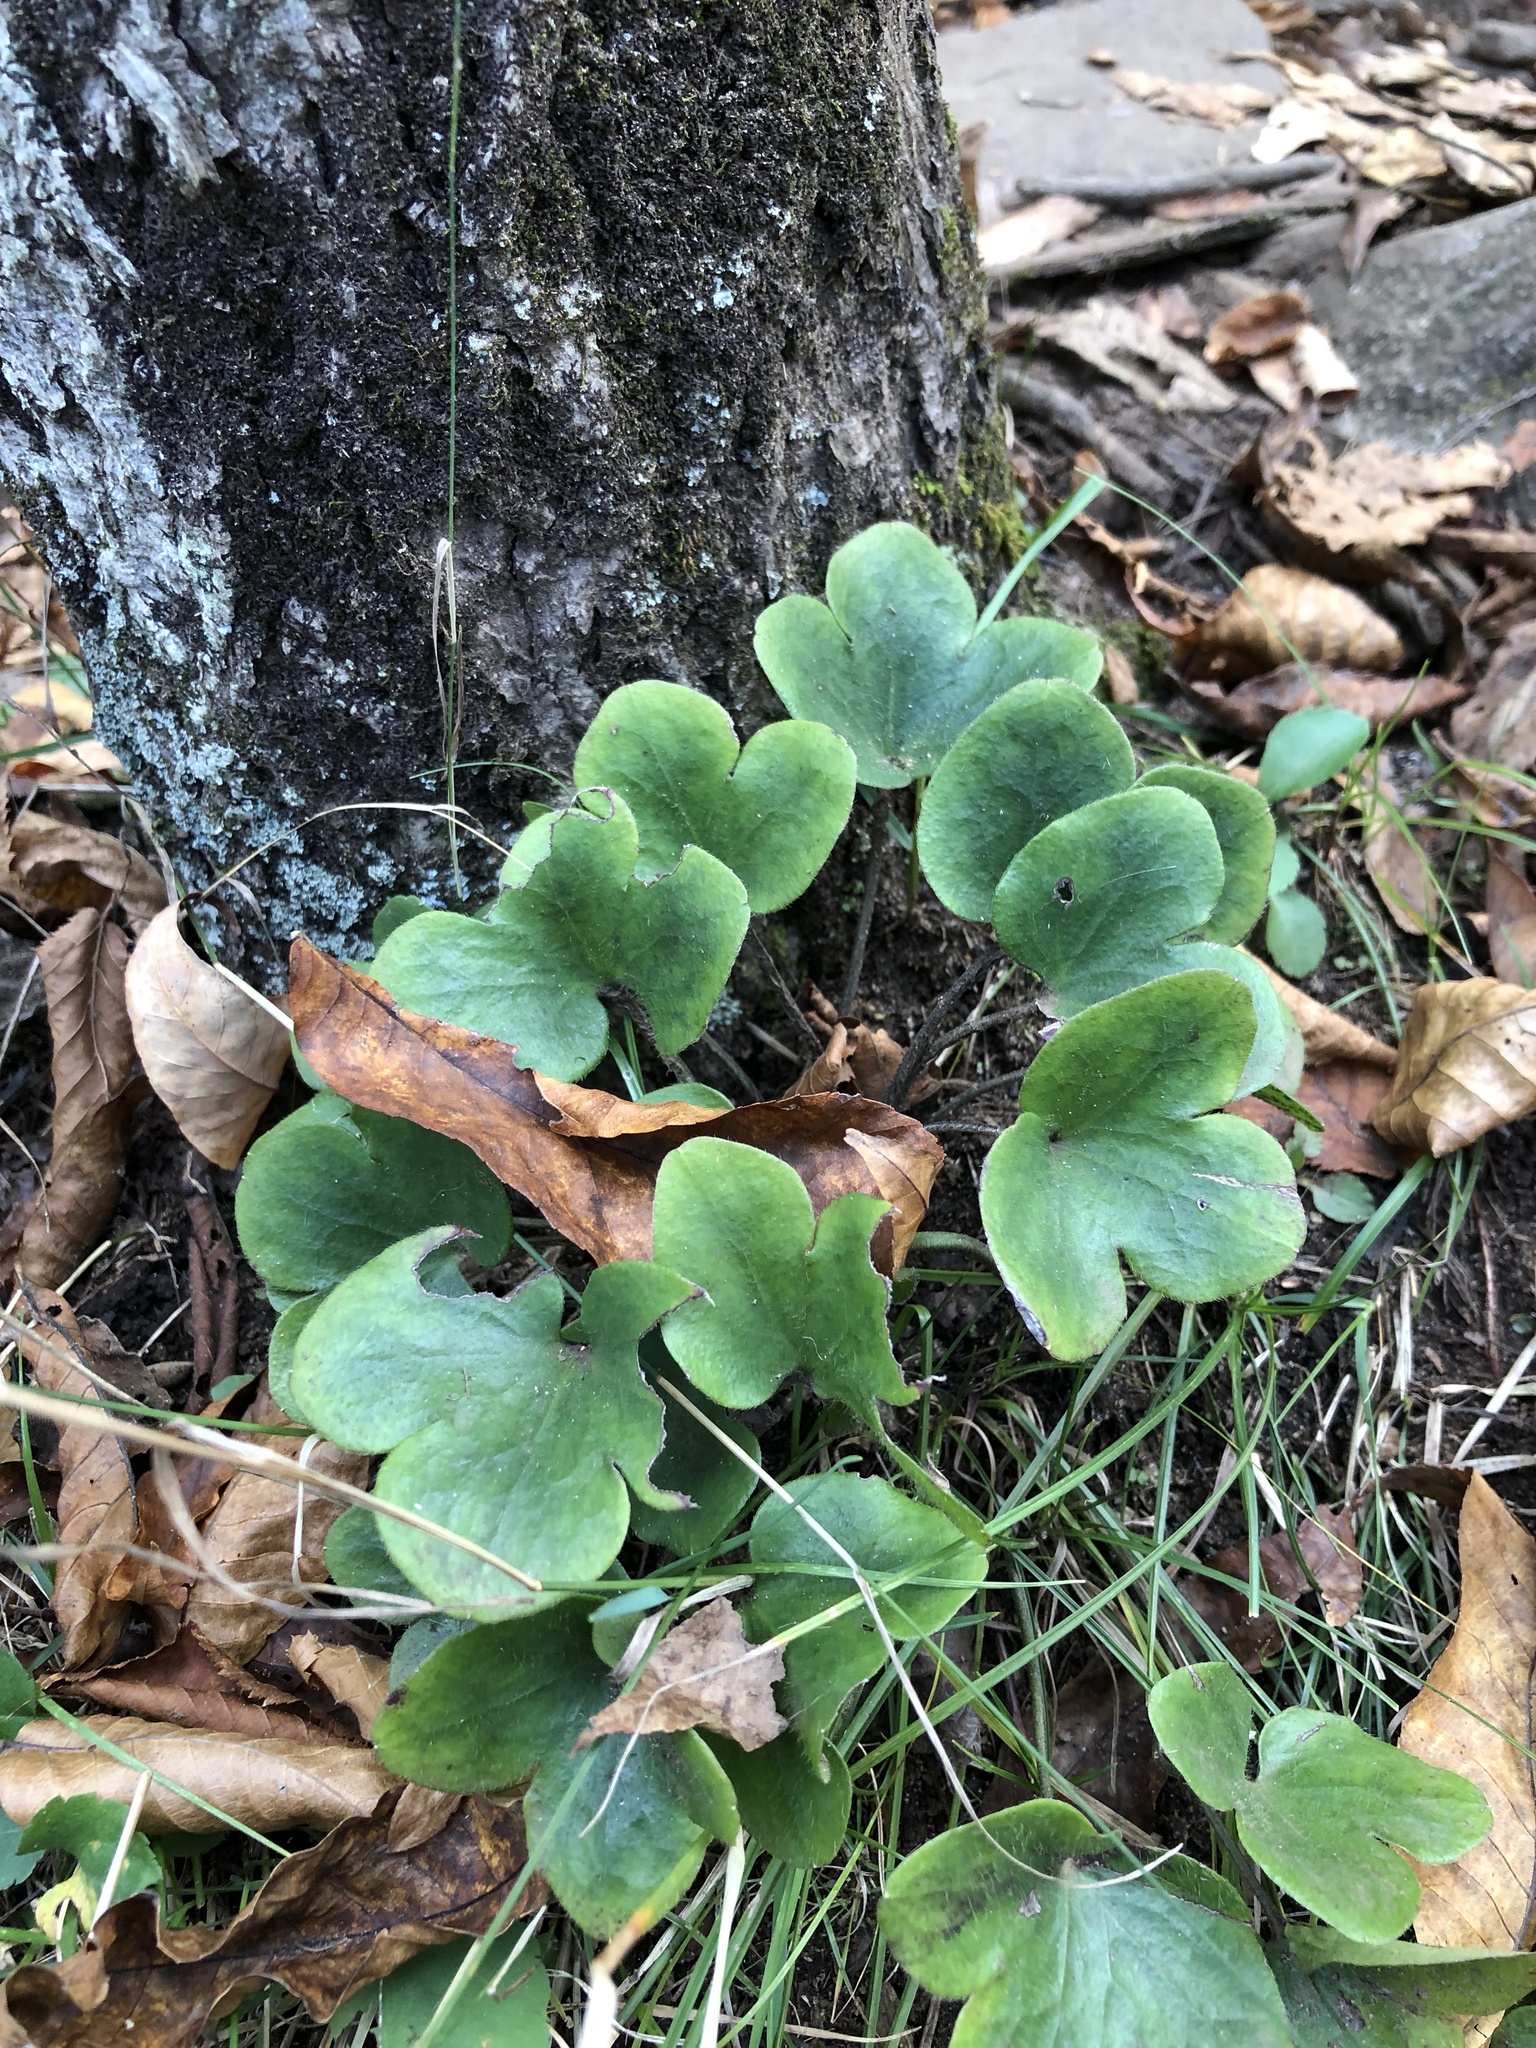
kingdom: Plantae
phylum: Tracheophyta
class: Magnoliopsida
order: Ranunculales
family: Ranunculaceae
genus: Hepatica
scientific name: Hepatica americana
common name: American hepatica
